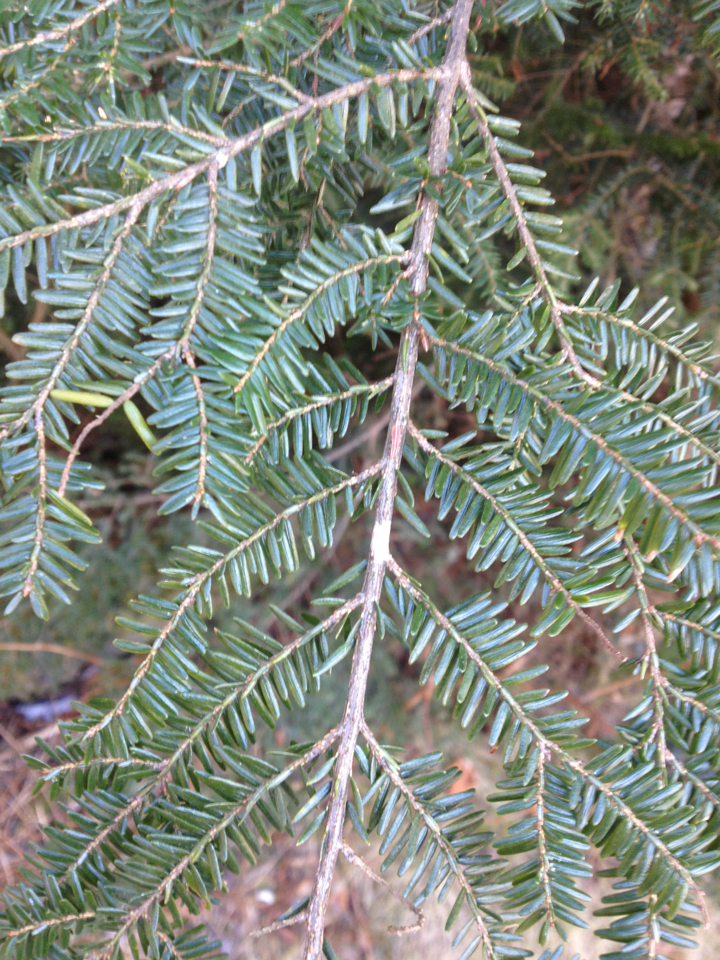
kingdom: Plantae
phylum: Tracheophyta
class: Pinopsida
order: Pinales
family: Pinaceae
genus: Tsuga
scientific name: Tsuga canadensis
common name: Eastern hemlock
